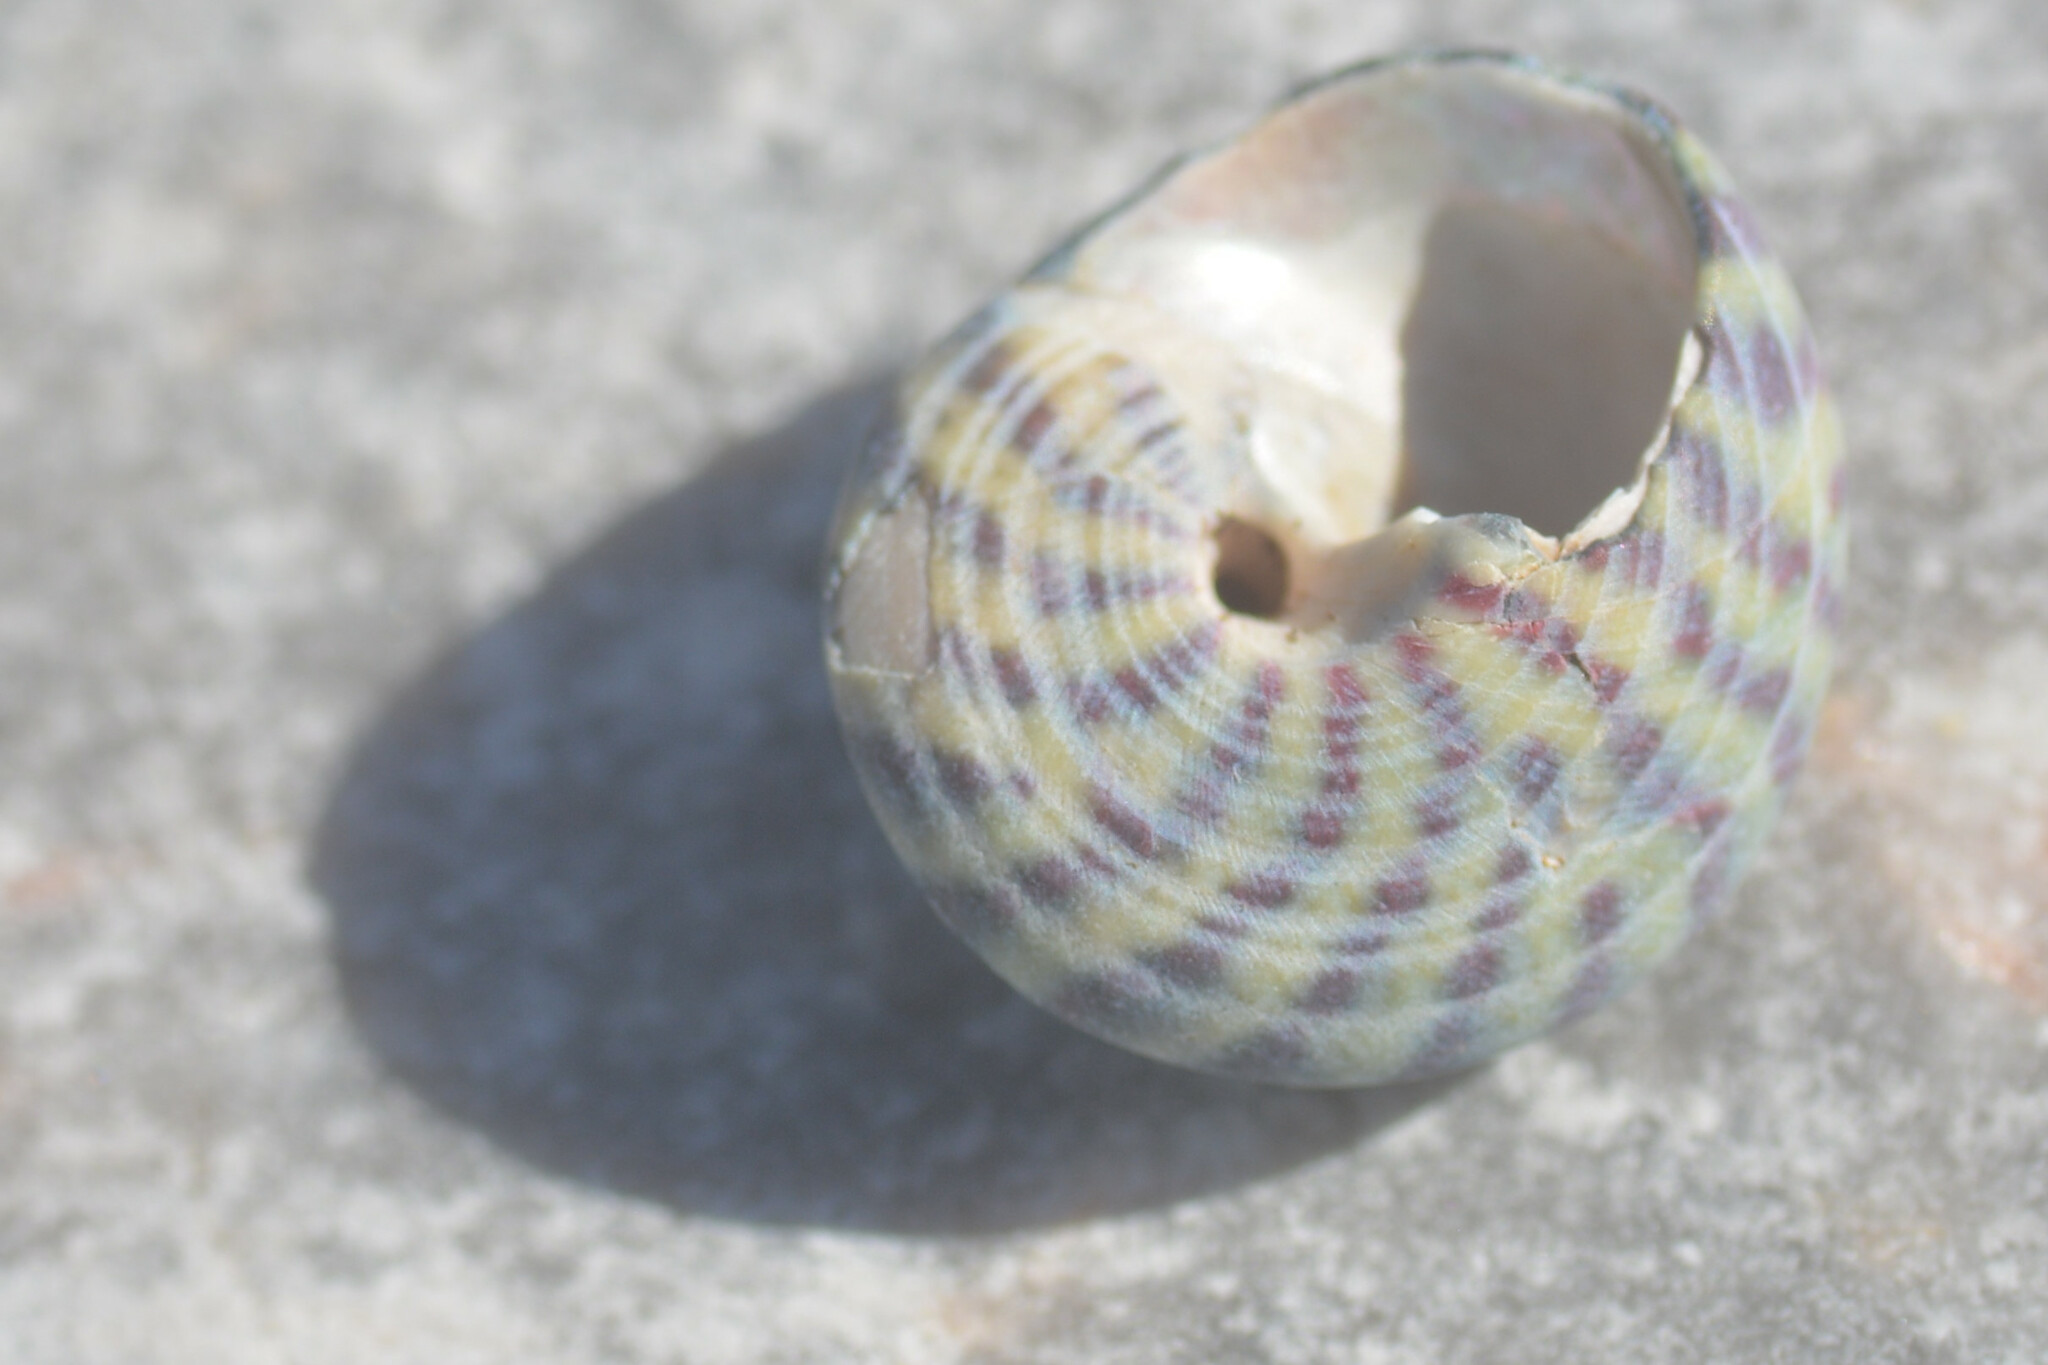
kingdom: Animalia
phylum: Mollusca
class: Gastropoda
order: Trochida
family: Trochidae
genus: Steromphala
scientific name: Steromphala umbilicalis
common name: Flat top shell
